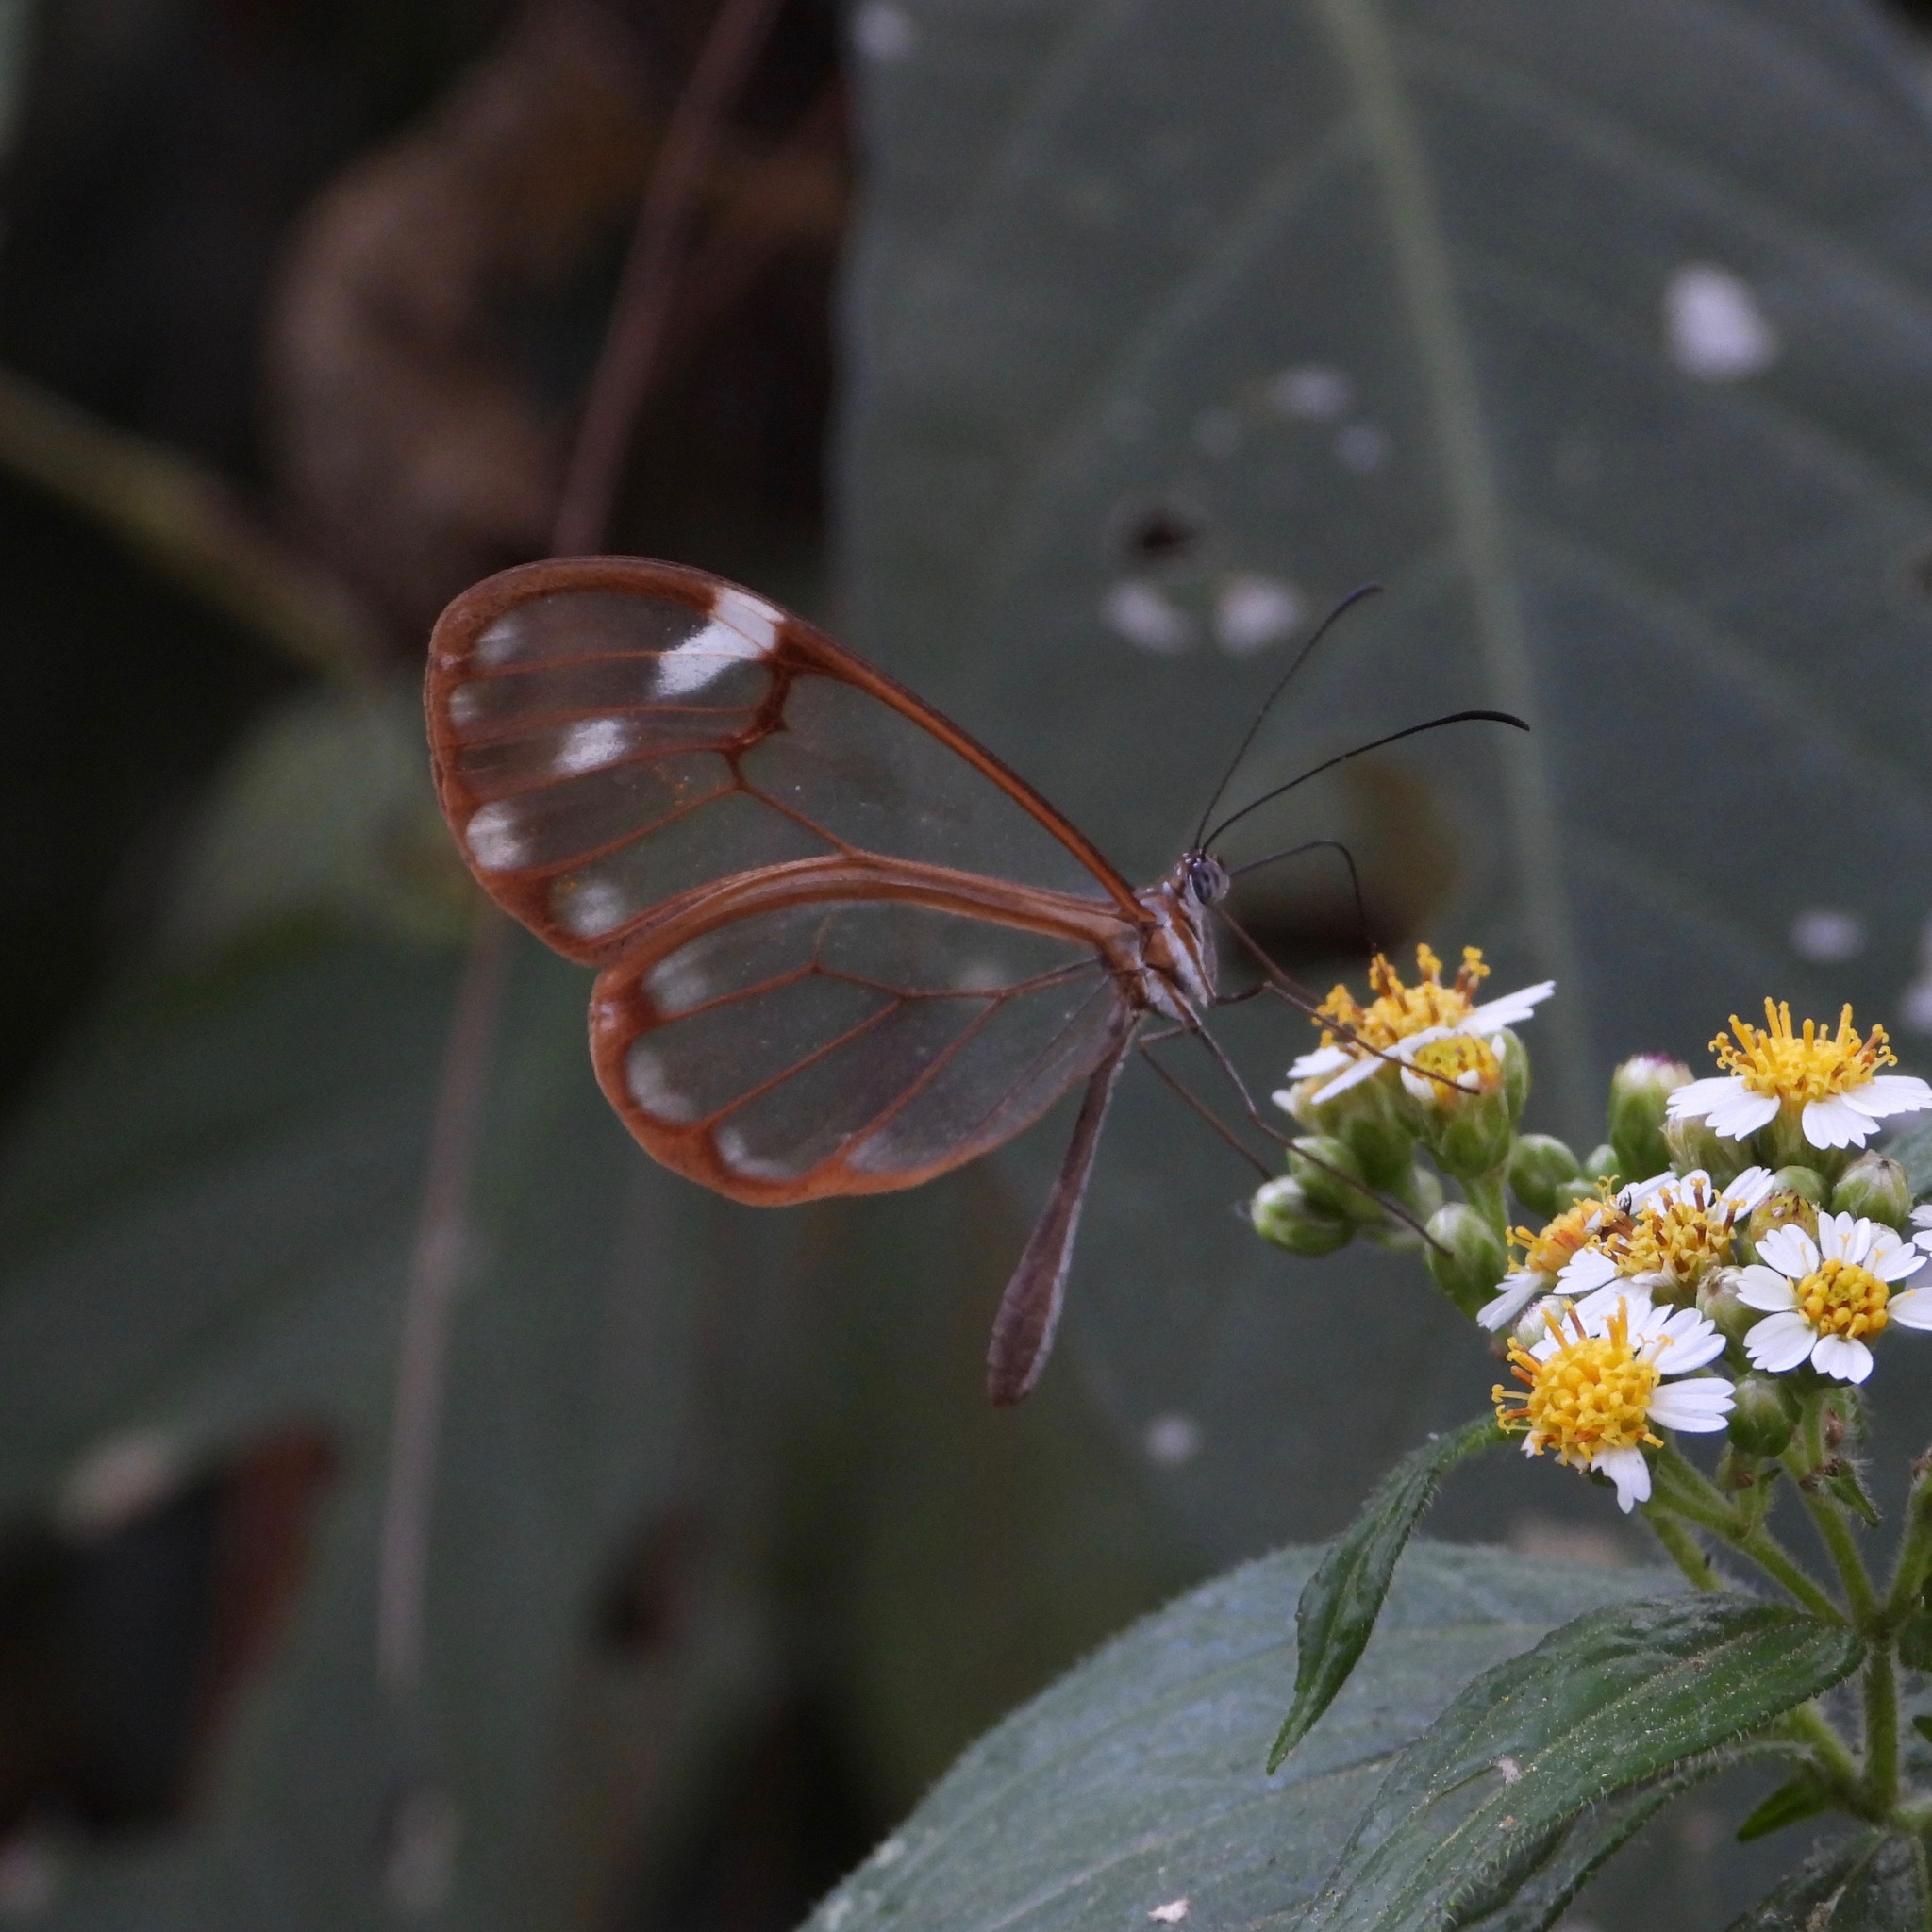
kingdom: Animalia
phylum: Arthropoda
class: Insecta
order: Lepidoptera
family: Nymphalidae
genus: Greta
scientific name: Greta annette
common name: White-spotted clearwing
